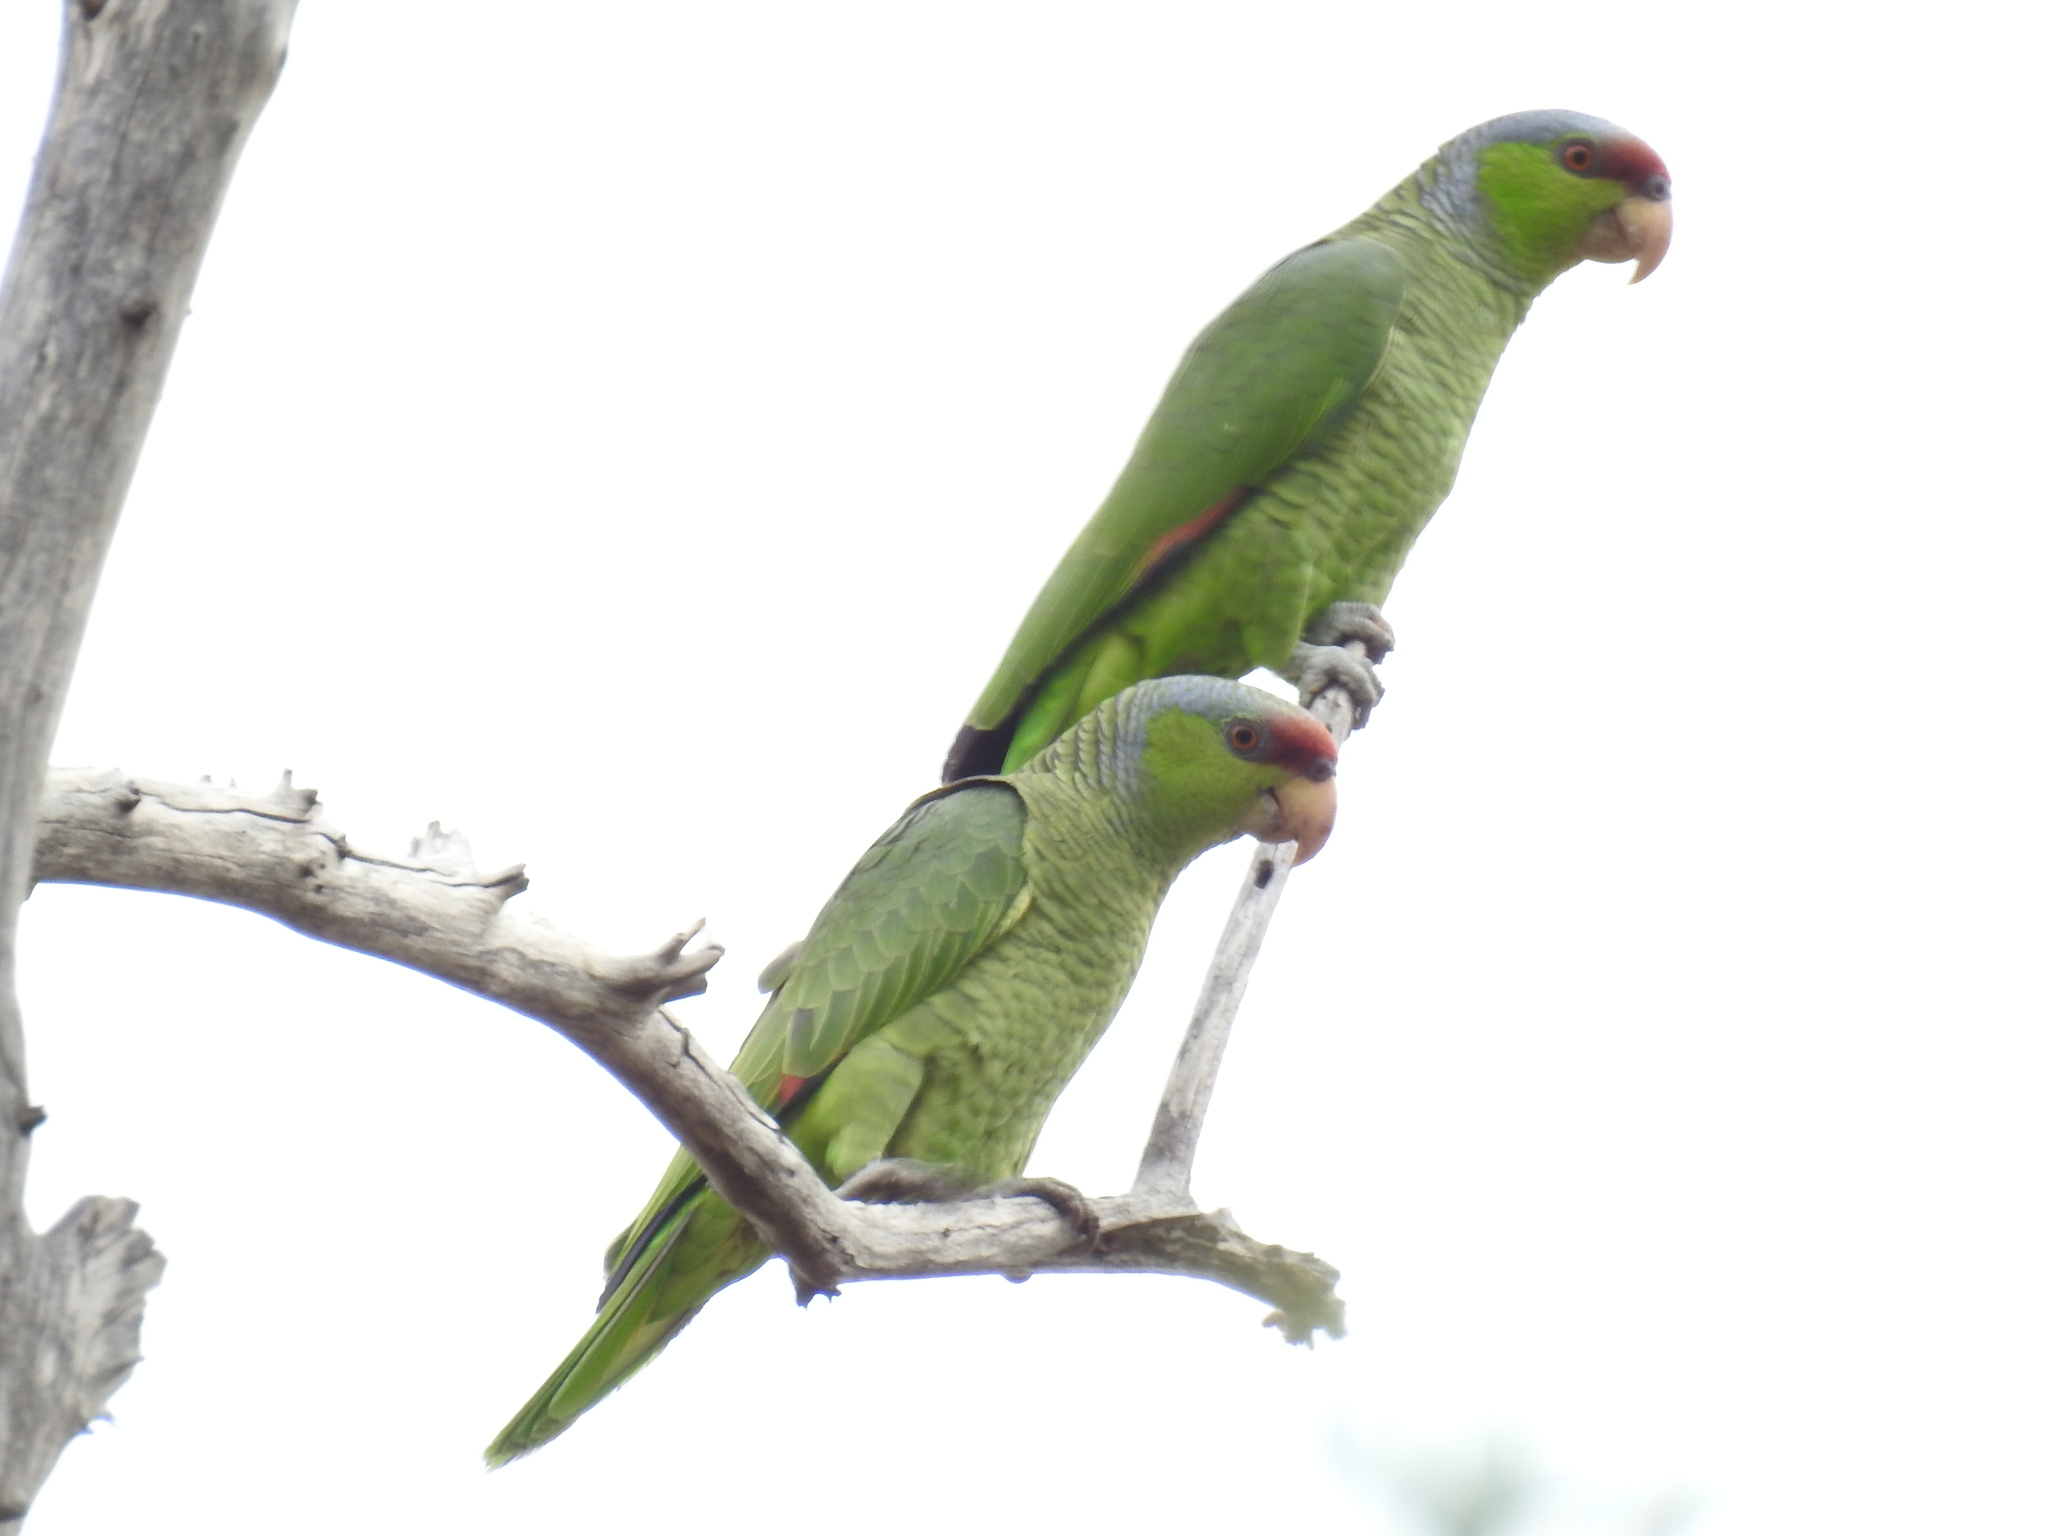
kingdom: Animalia
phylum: Chordata
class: Aves
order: Psittaciformes
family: Psittacidae
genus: Amazona
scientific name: Amazona finschi
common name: Lilac-crowned amazon
